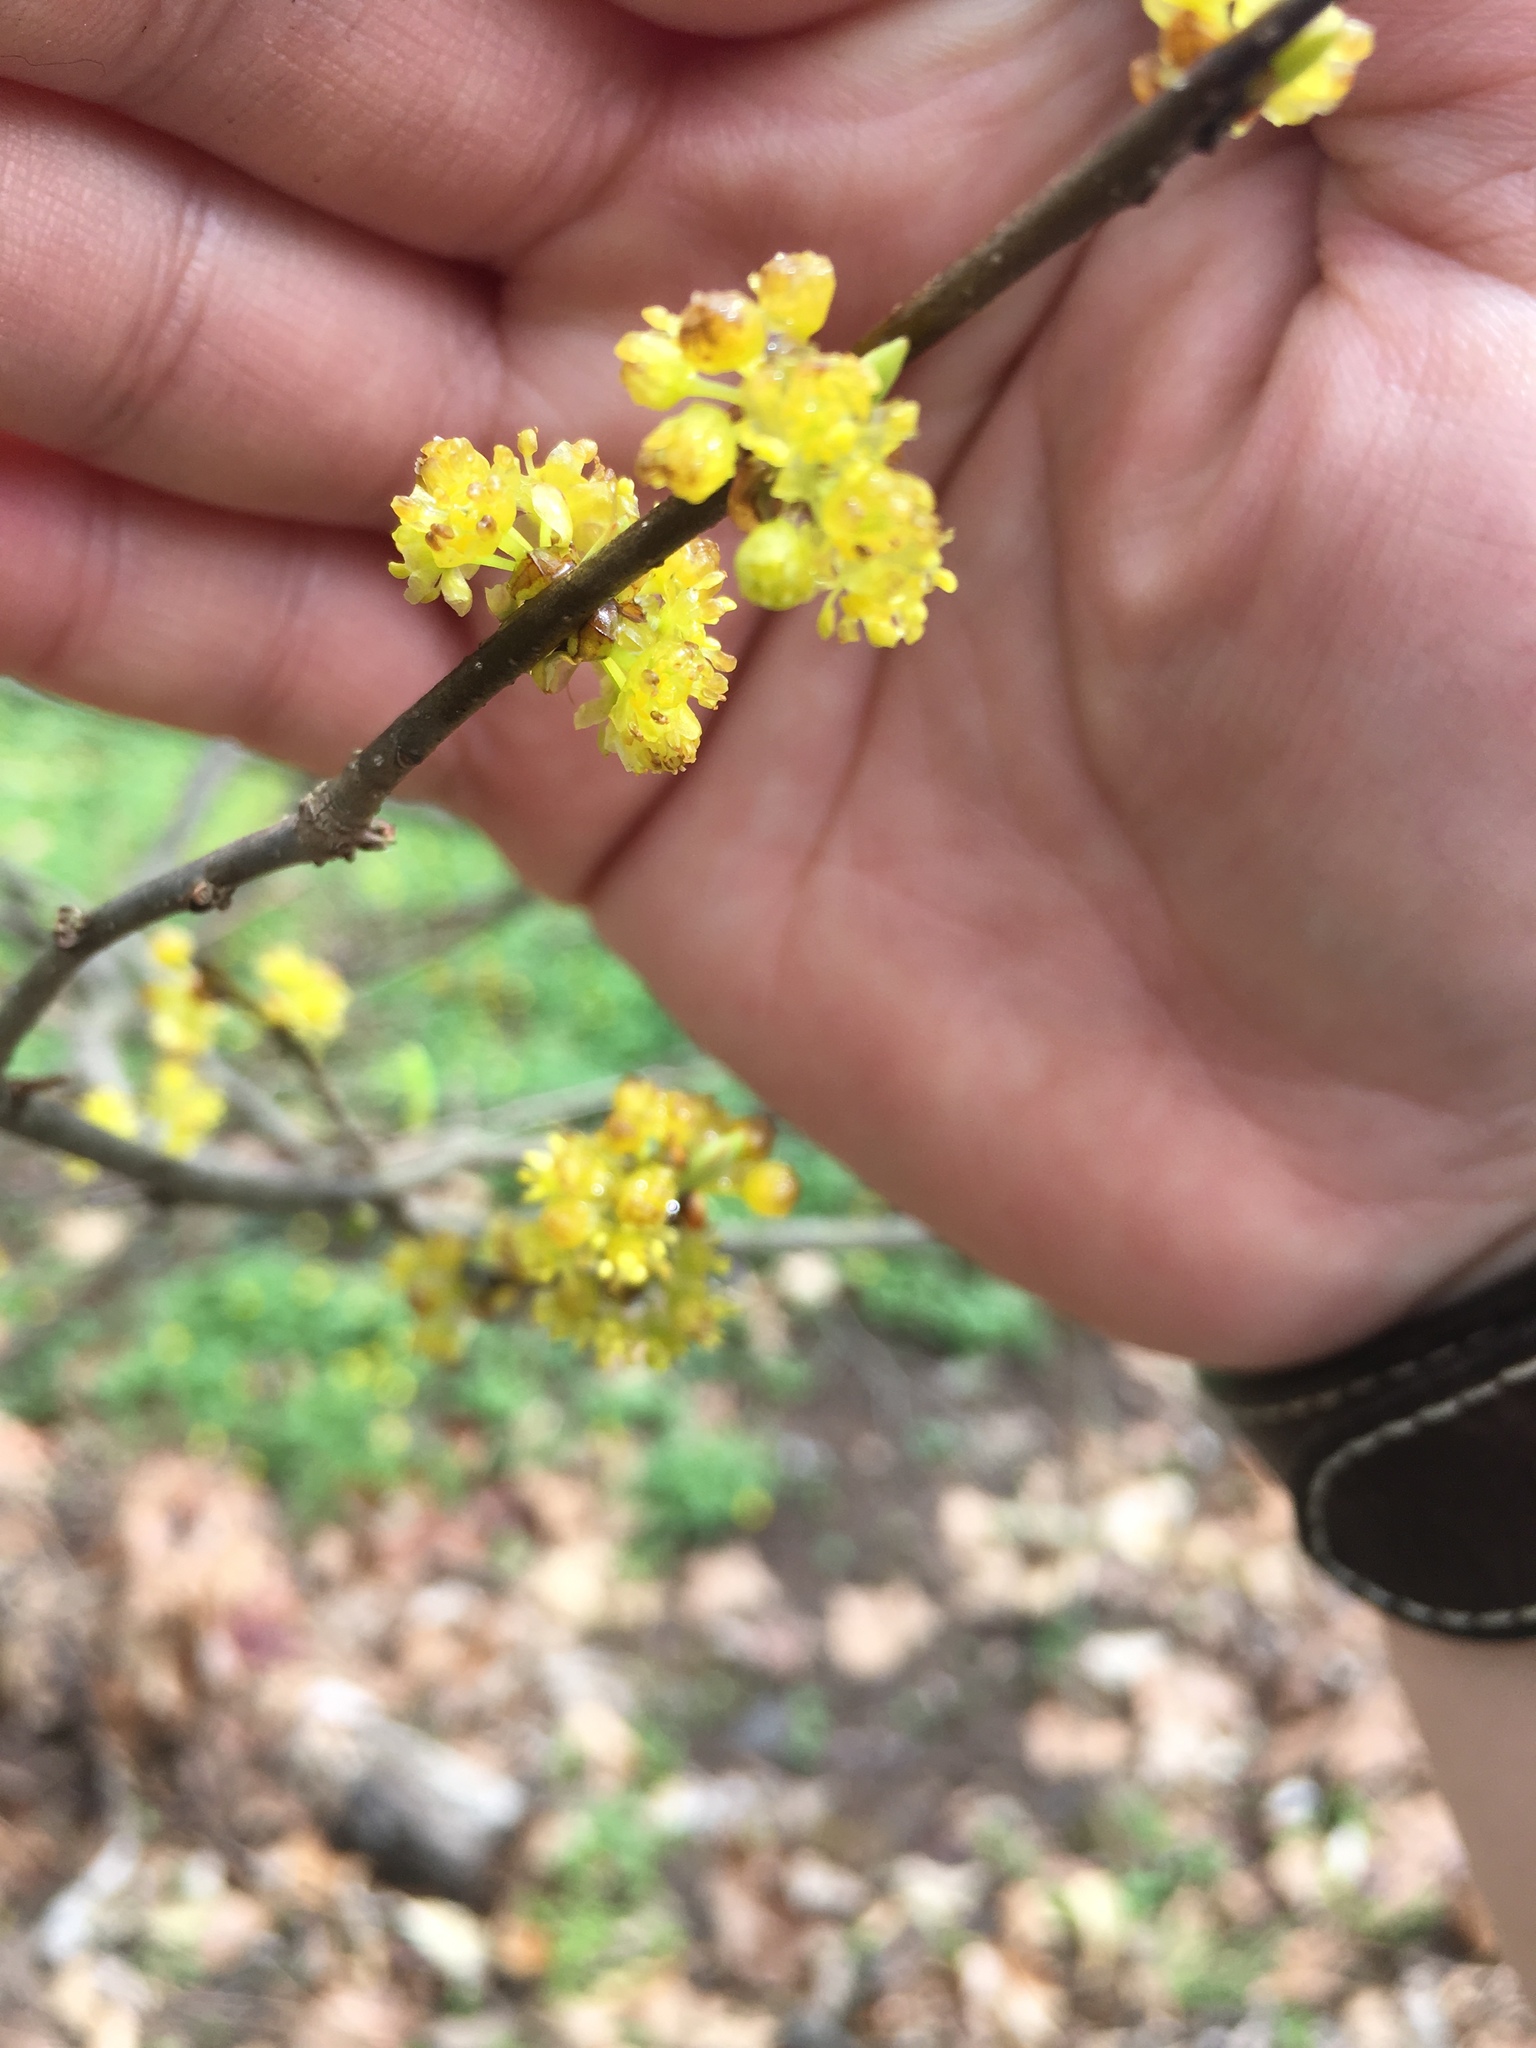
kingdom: Plantae
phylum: Tracheophyta
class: Magnoliopsida
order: Laurales
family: Lauraceae
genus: Lindera
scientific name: Lindera benzoin
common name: Spicebush
